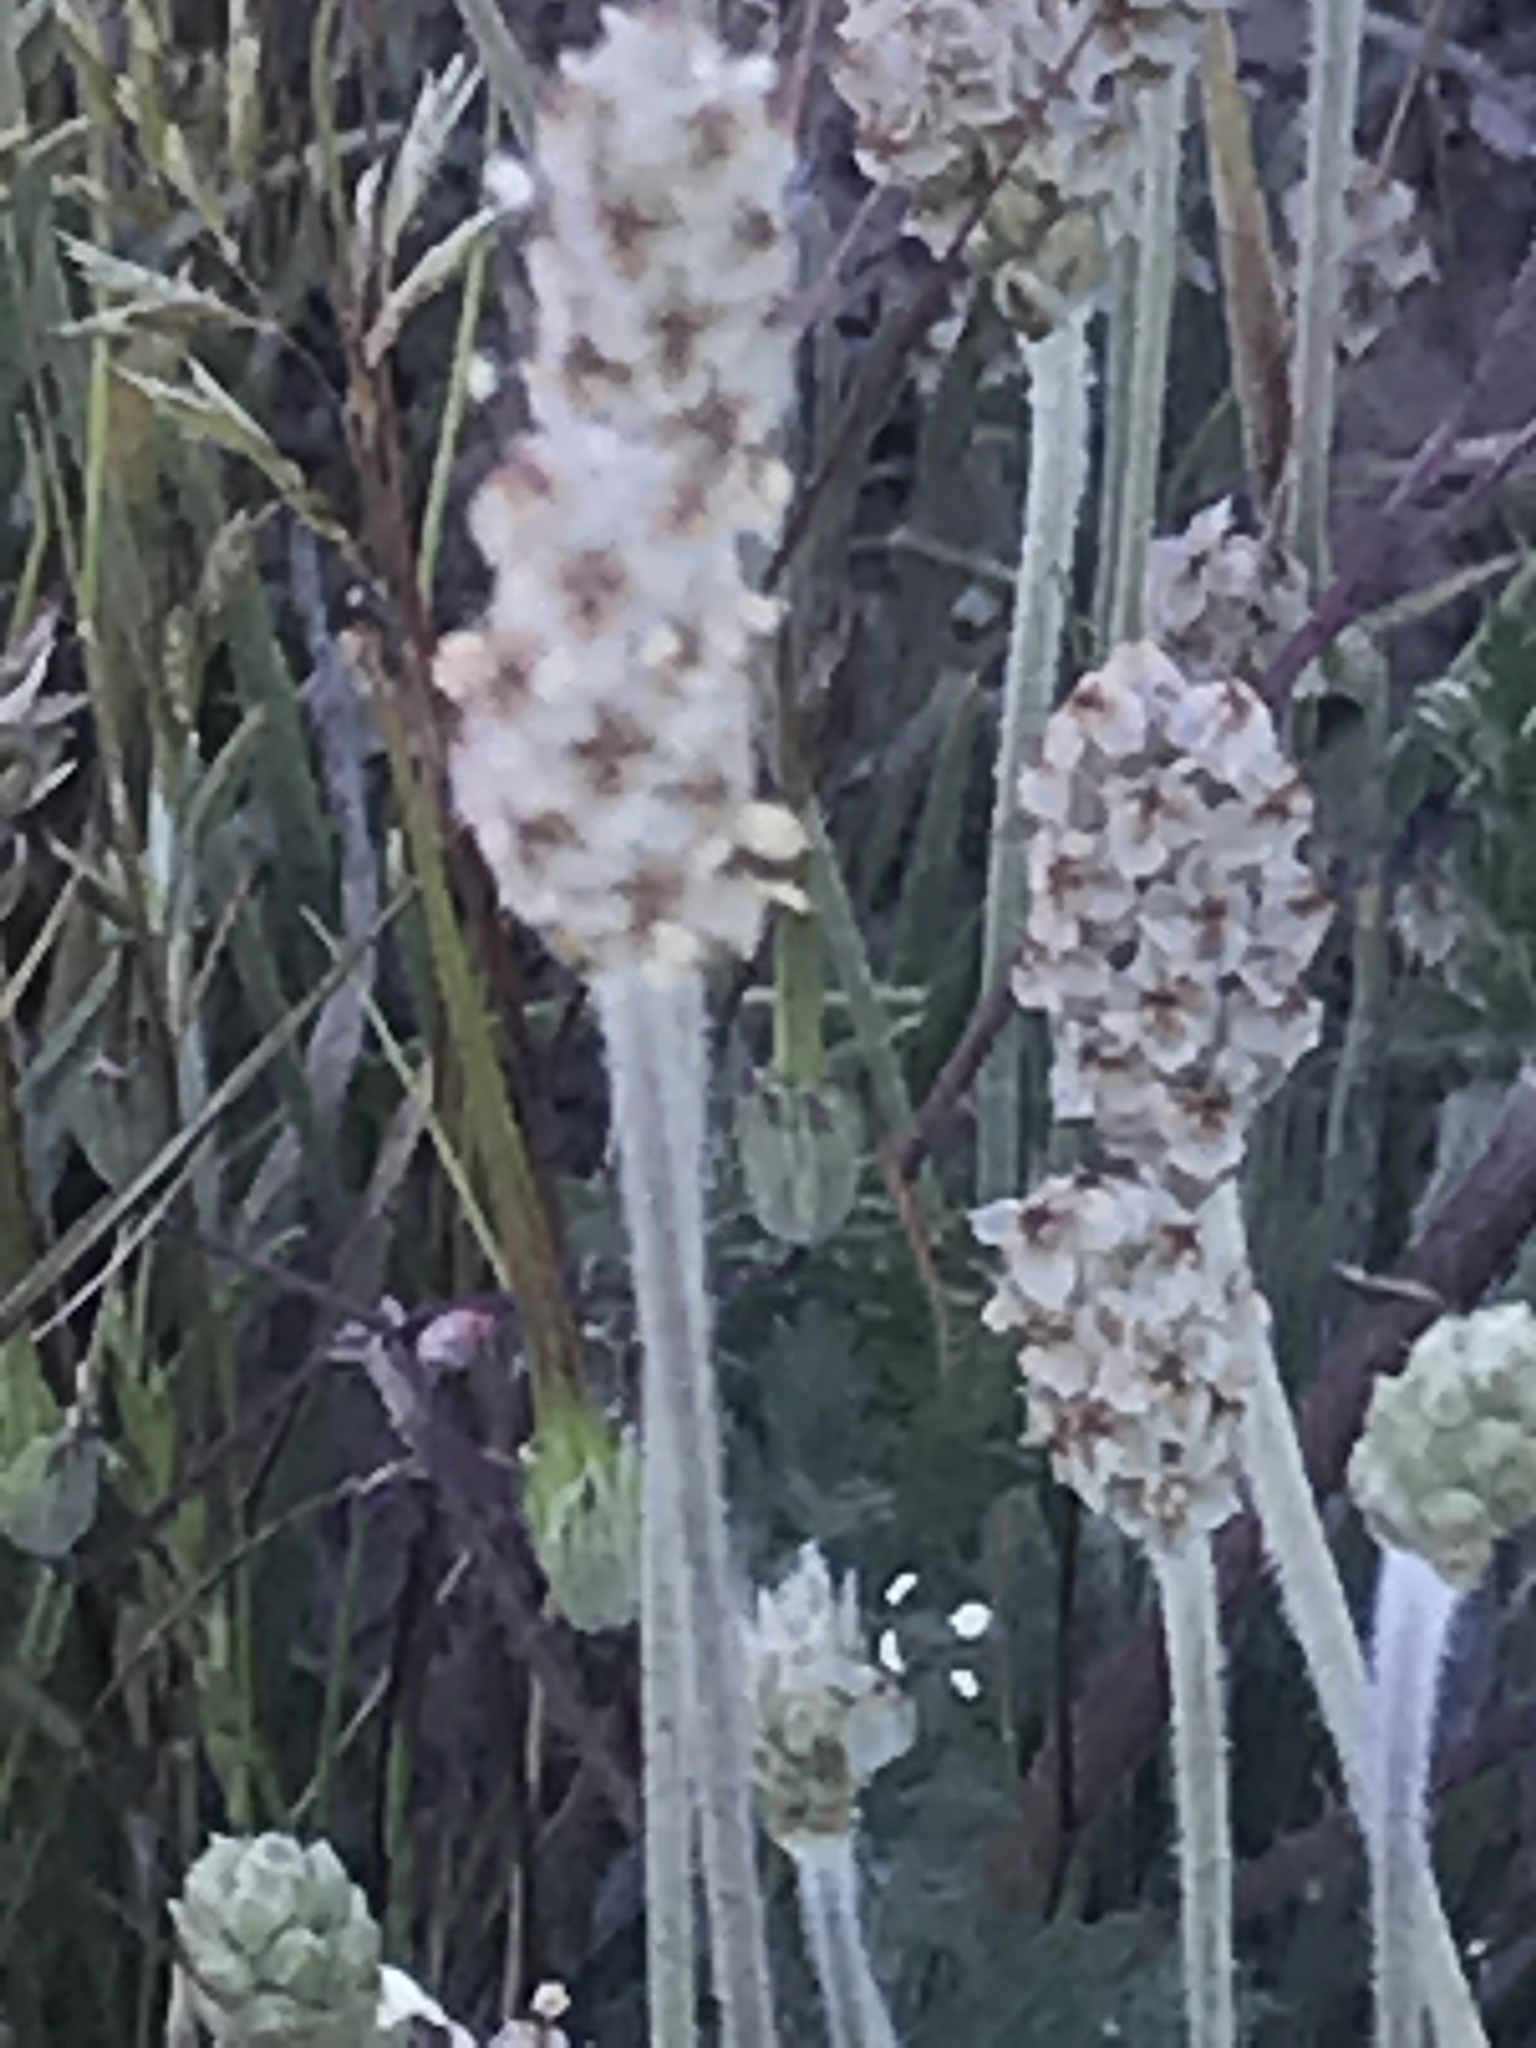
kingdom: Plantae
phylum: Tracheophyta
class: Magnoliopsida
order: Lamiales
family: Plantaginaceae
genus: Plantago
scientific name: Plantago ovata
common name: Blond plantain
